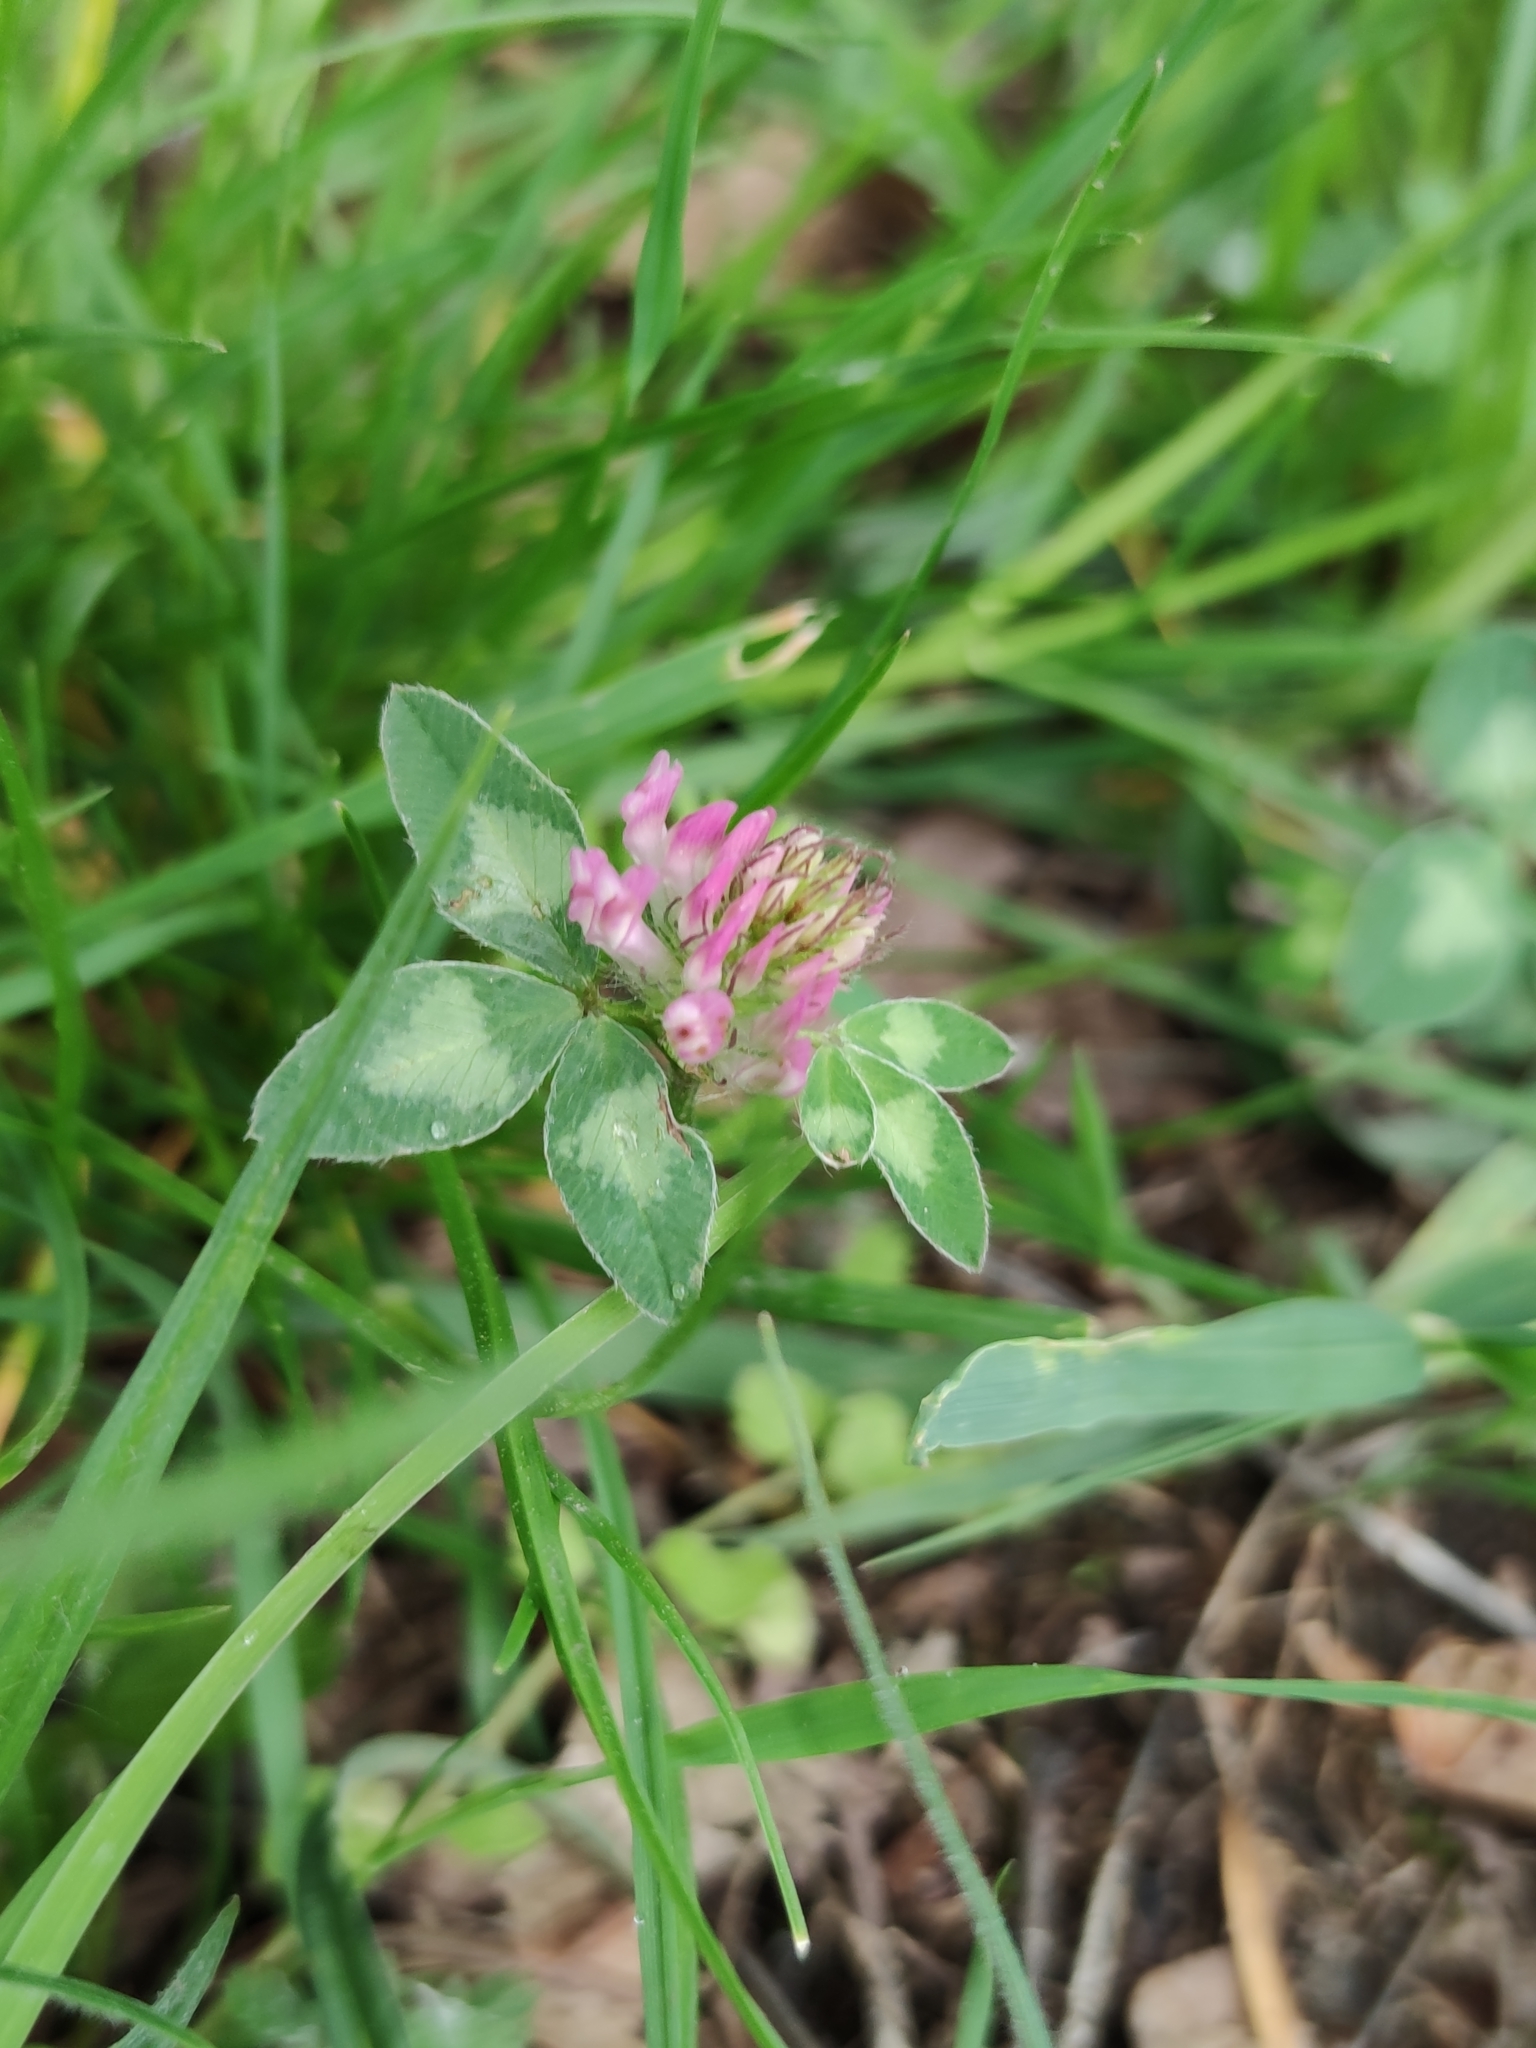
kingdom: Plantae
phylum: Tracheophyta
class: Magnoliopsida
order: Fabales
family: Fabaceae
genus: Trifolium
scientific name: Trifolium pratense
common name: Red clover
